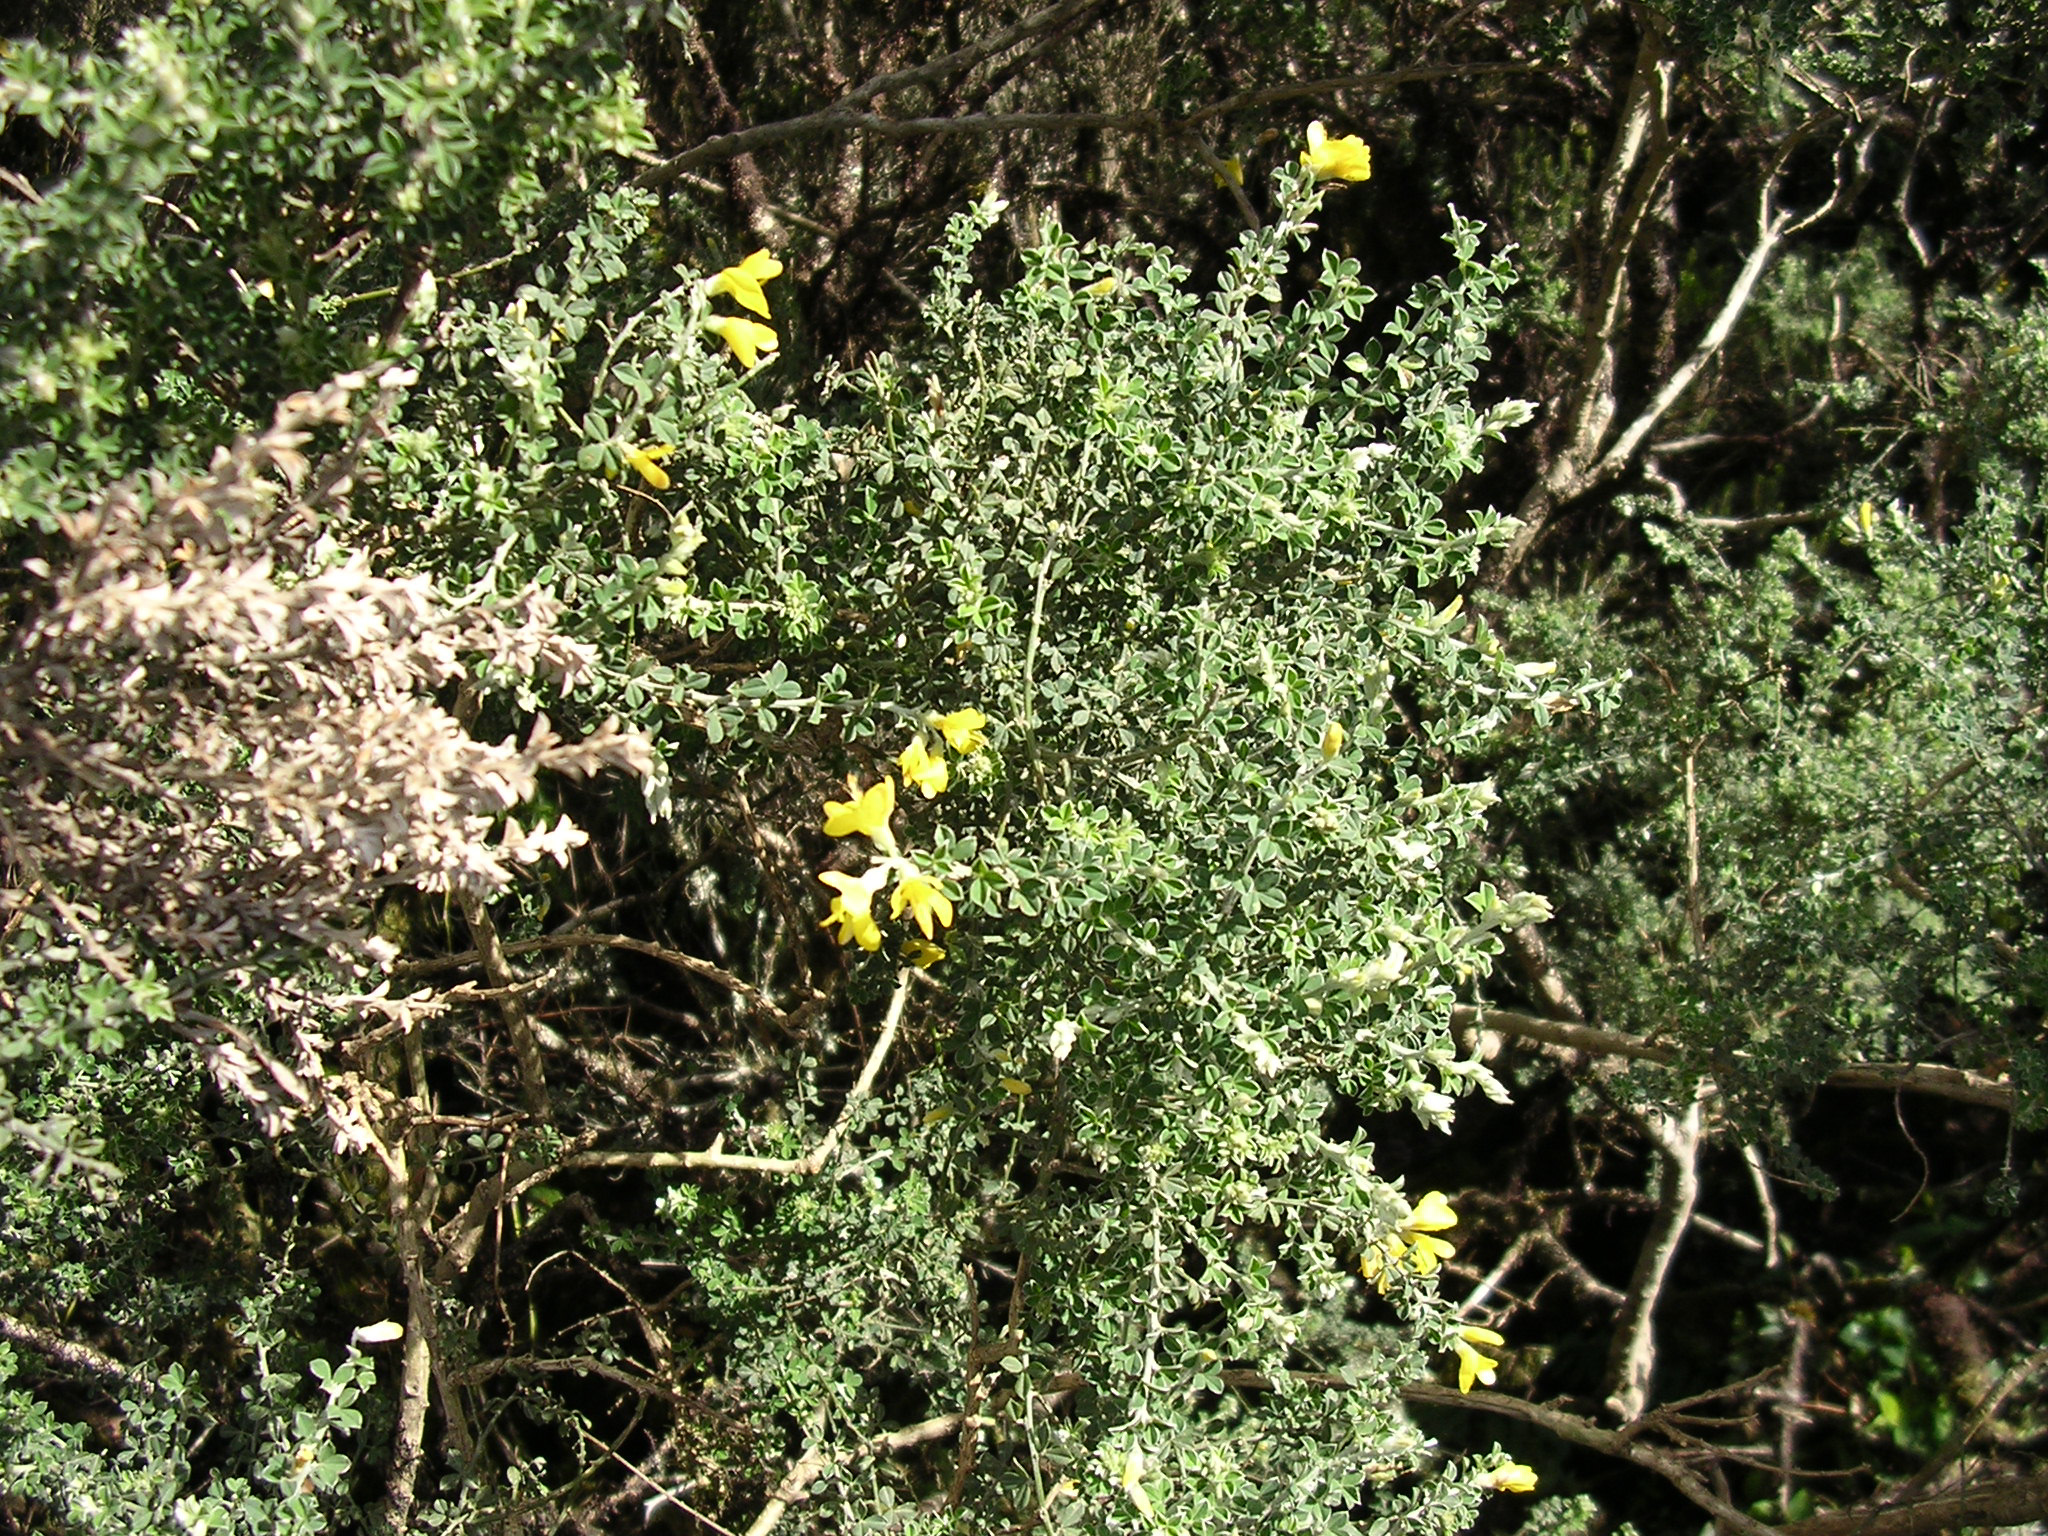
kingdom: Plantae
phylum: Tracheophyta
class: Magnoliopsida
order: Fabales
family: Fabaceae
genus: Genista
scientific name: Genista canariensis
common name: Canary broom
